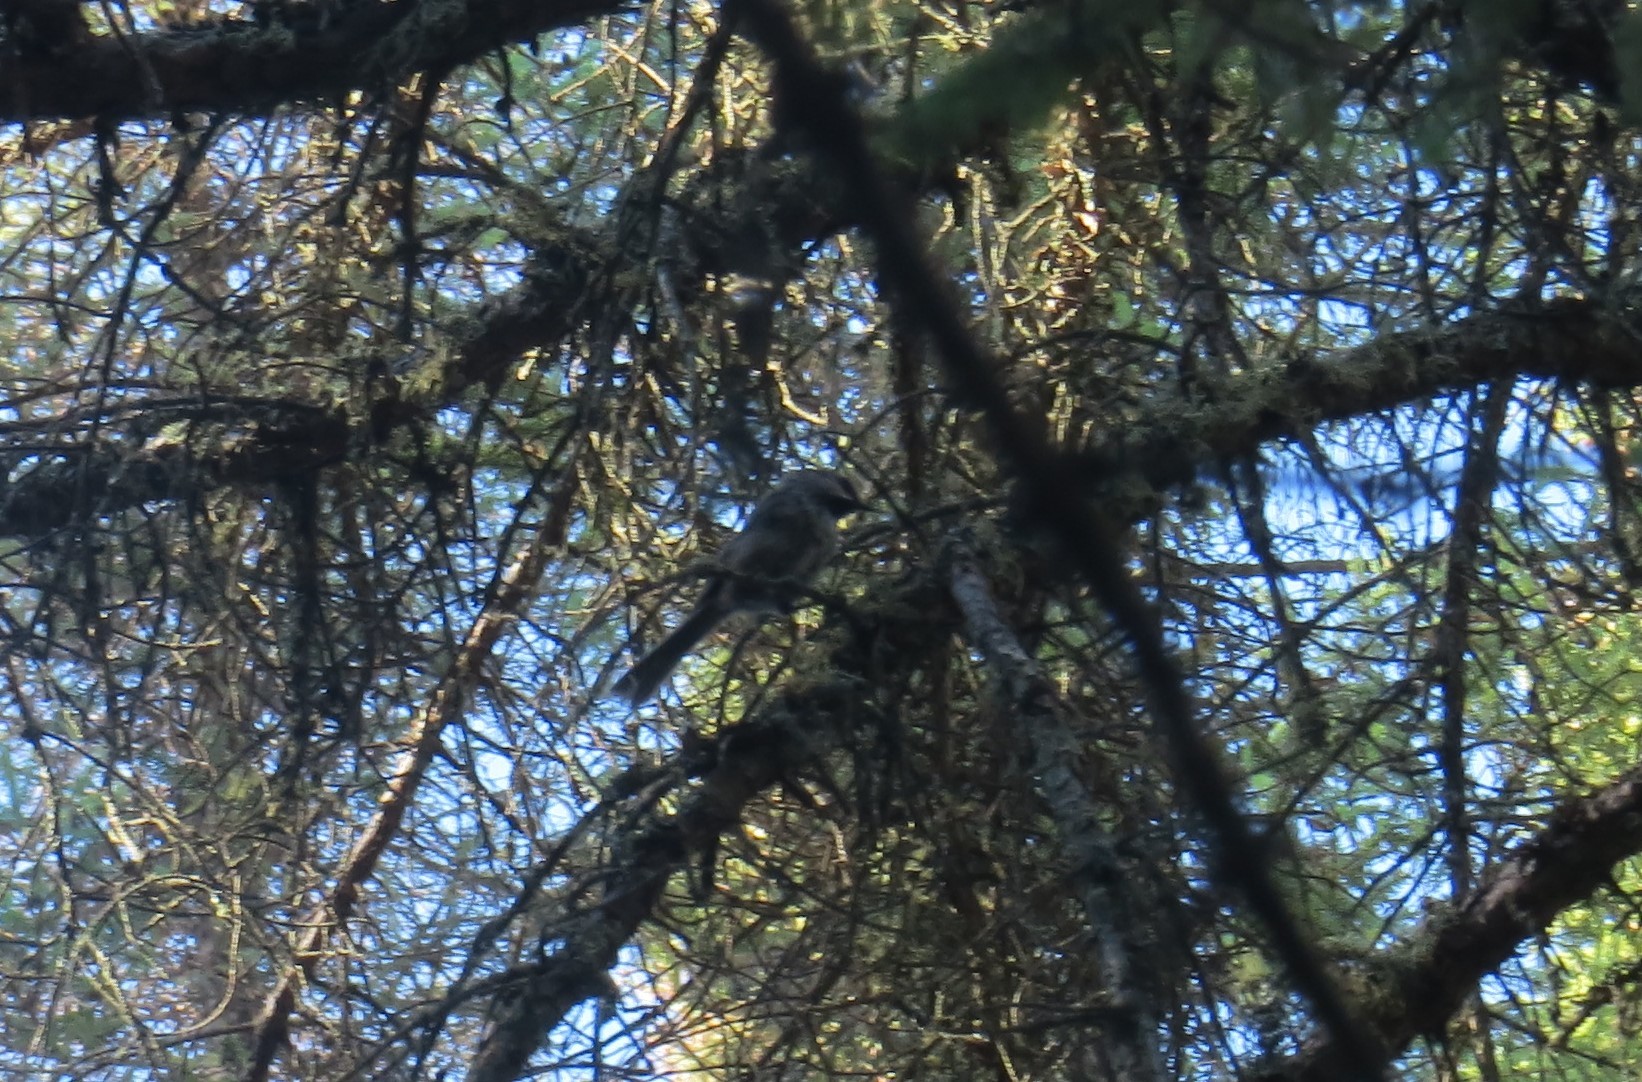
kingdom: Animalia
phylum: Chordata
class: Aves
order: Passeriformes
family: Paridae
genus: Poecile
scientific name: Poecile hudsonicus
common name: Boreal chickadee
